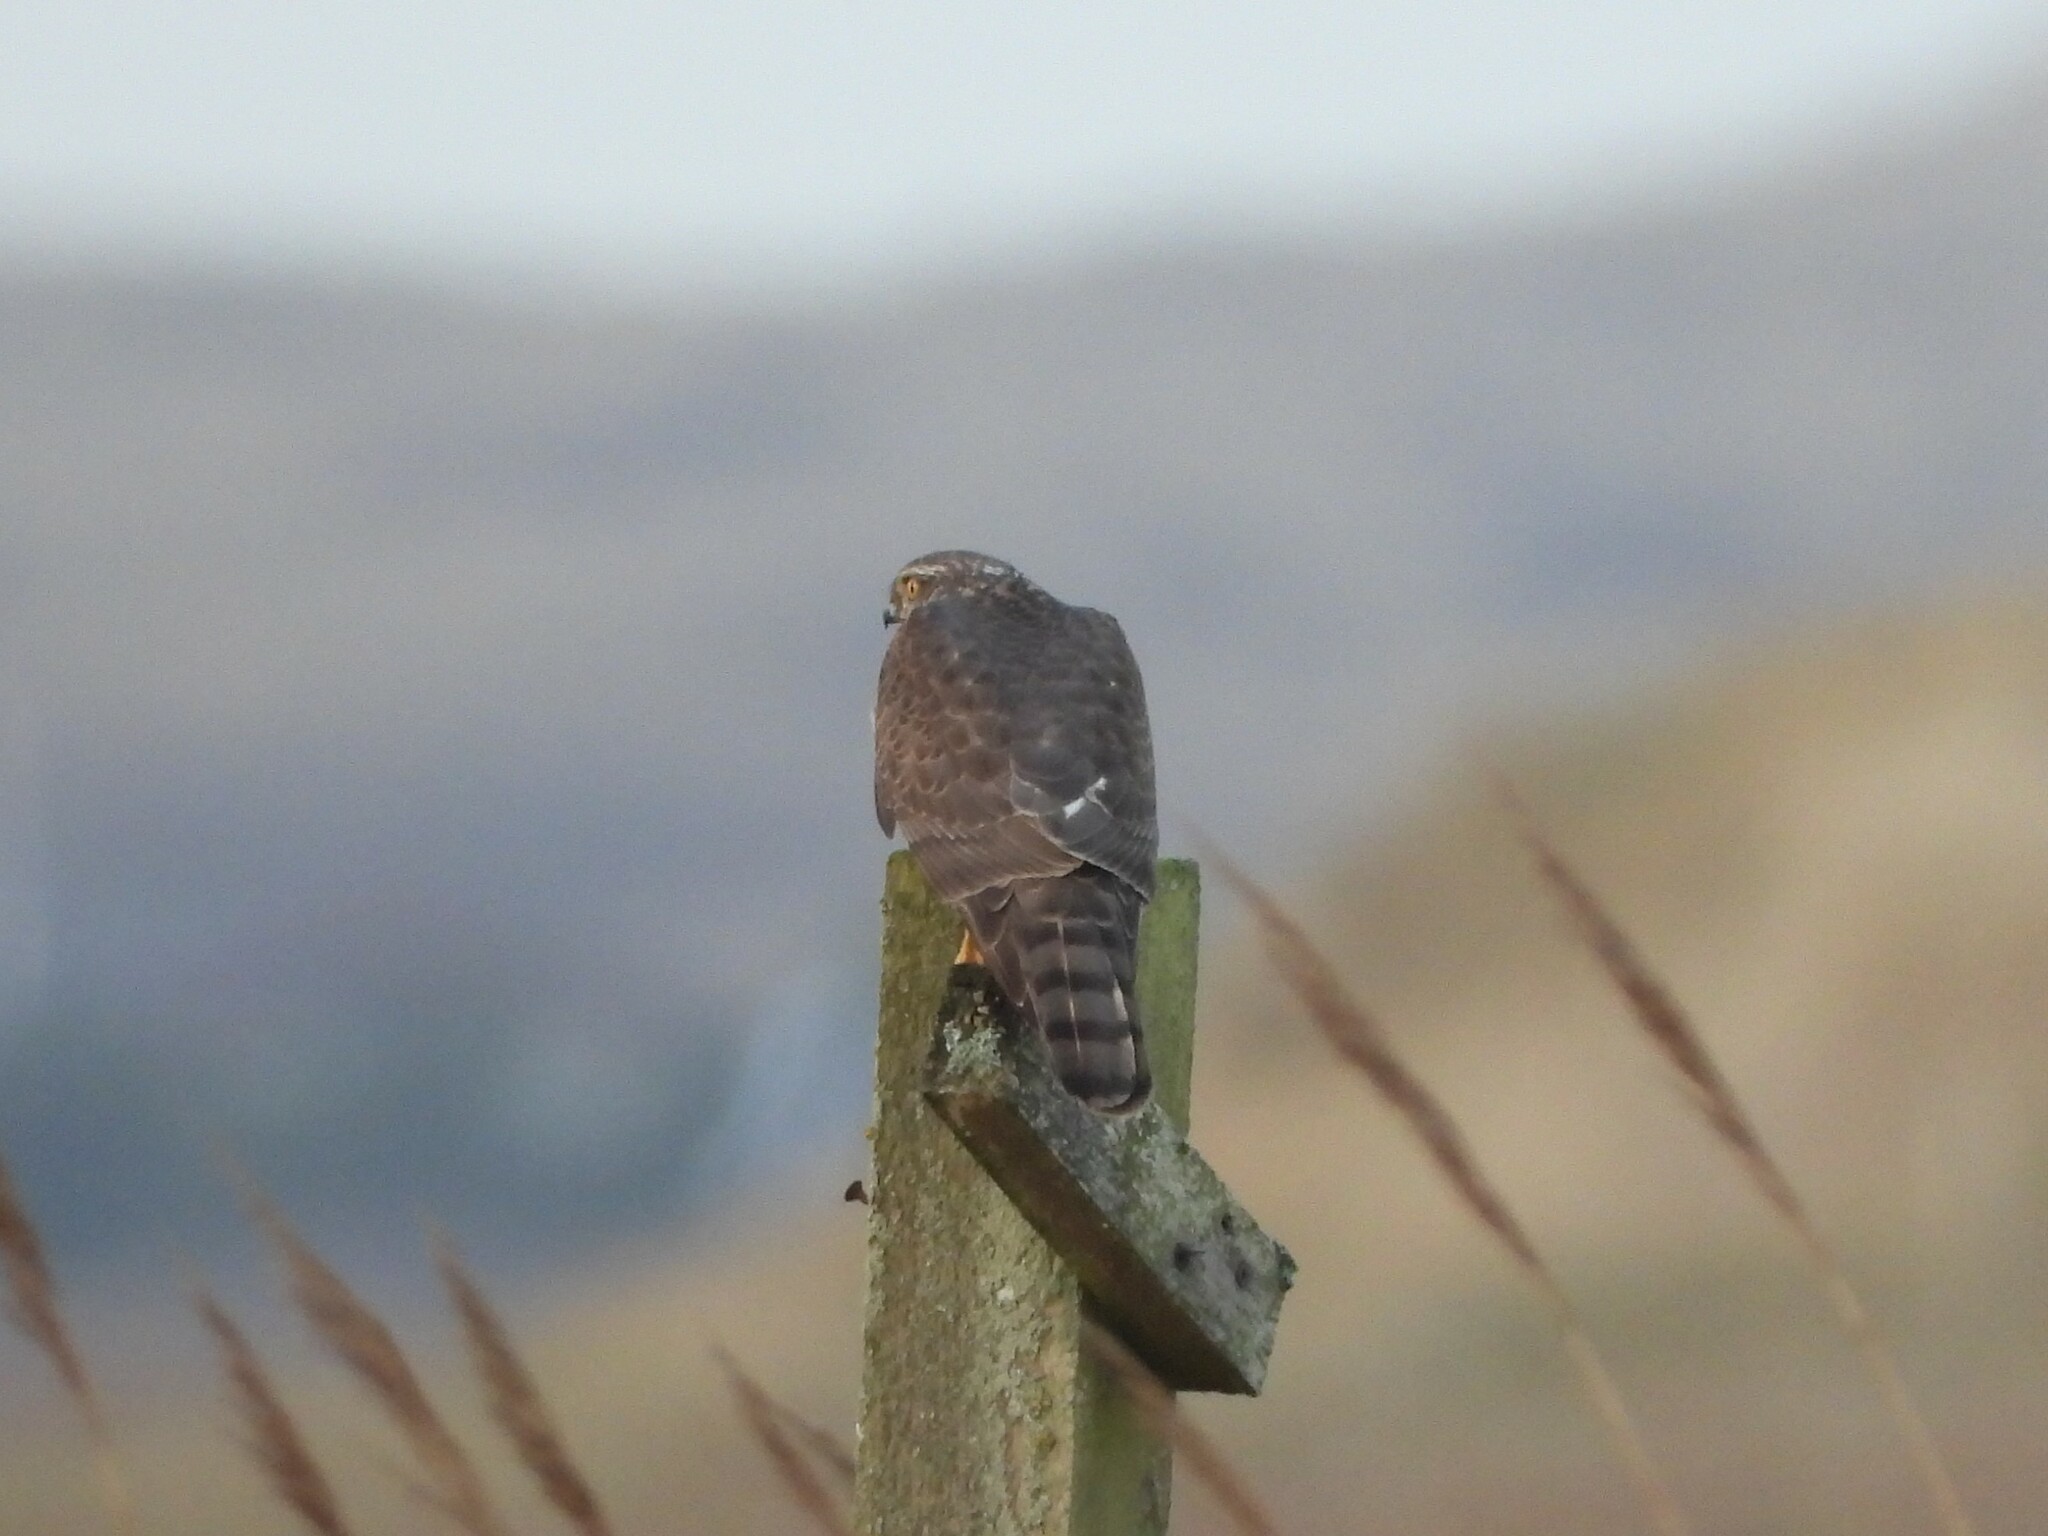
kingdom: Animalia
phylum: Chordata
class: Aves
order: Accipitriformes
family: Accipitridae
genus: Accipiter
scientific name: Accipiter nisus
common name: Eurasian sparrowhawk
